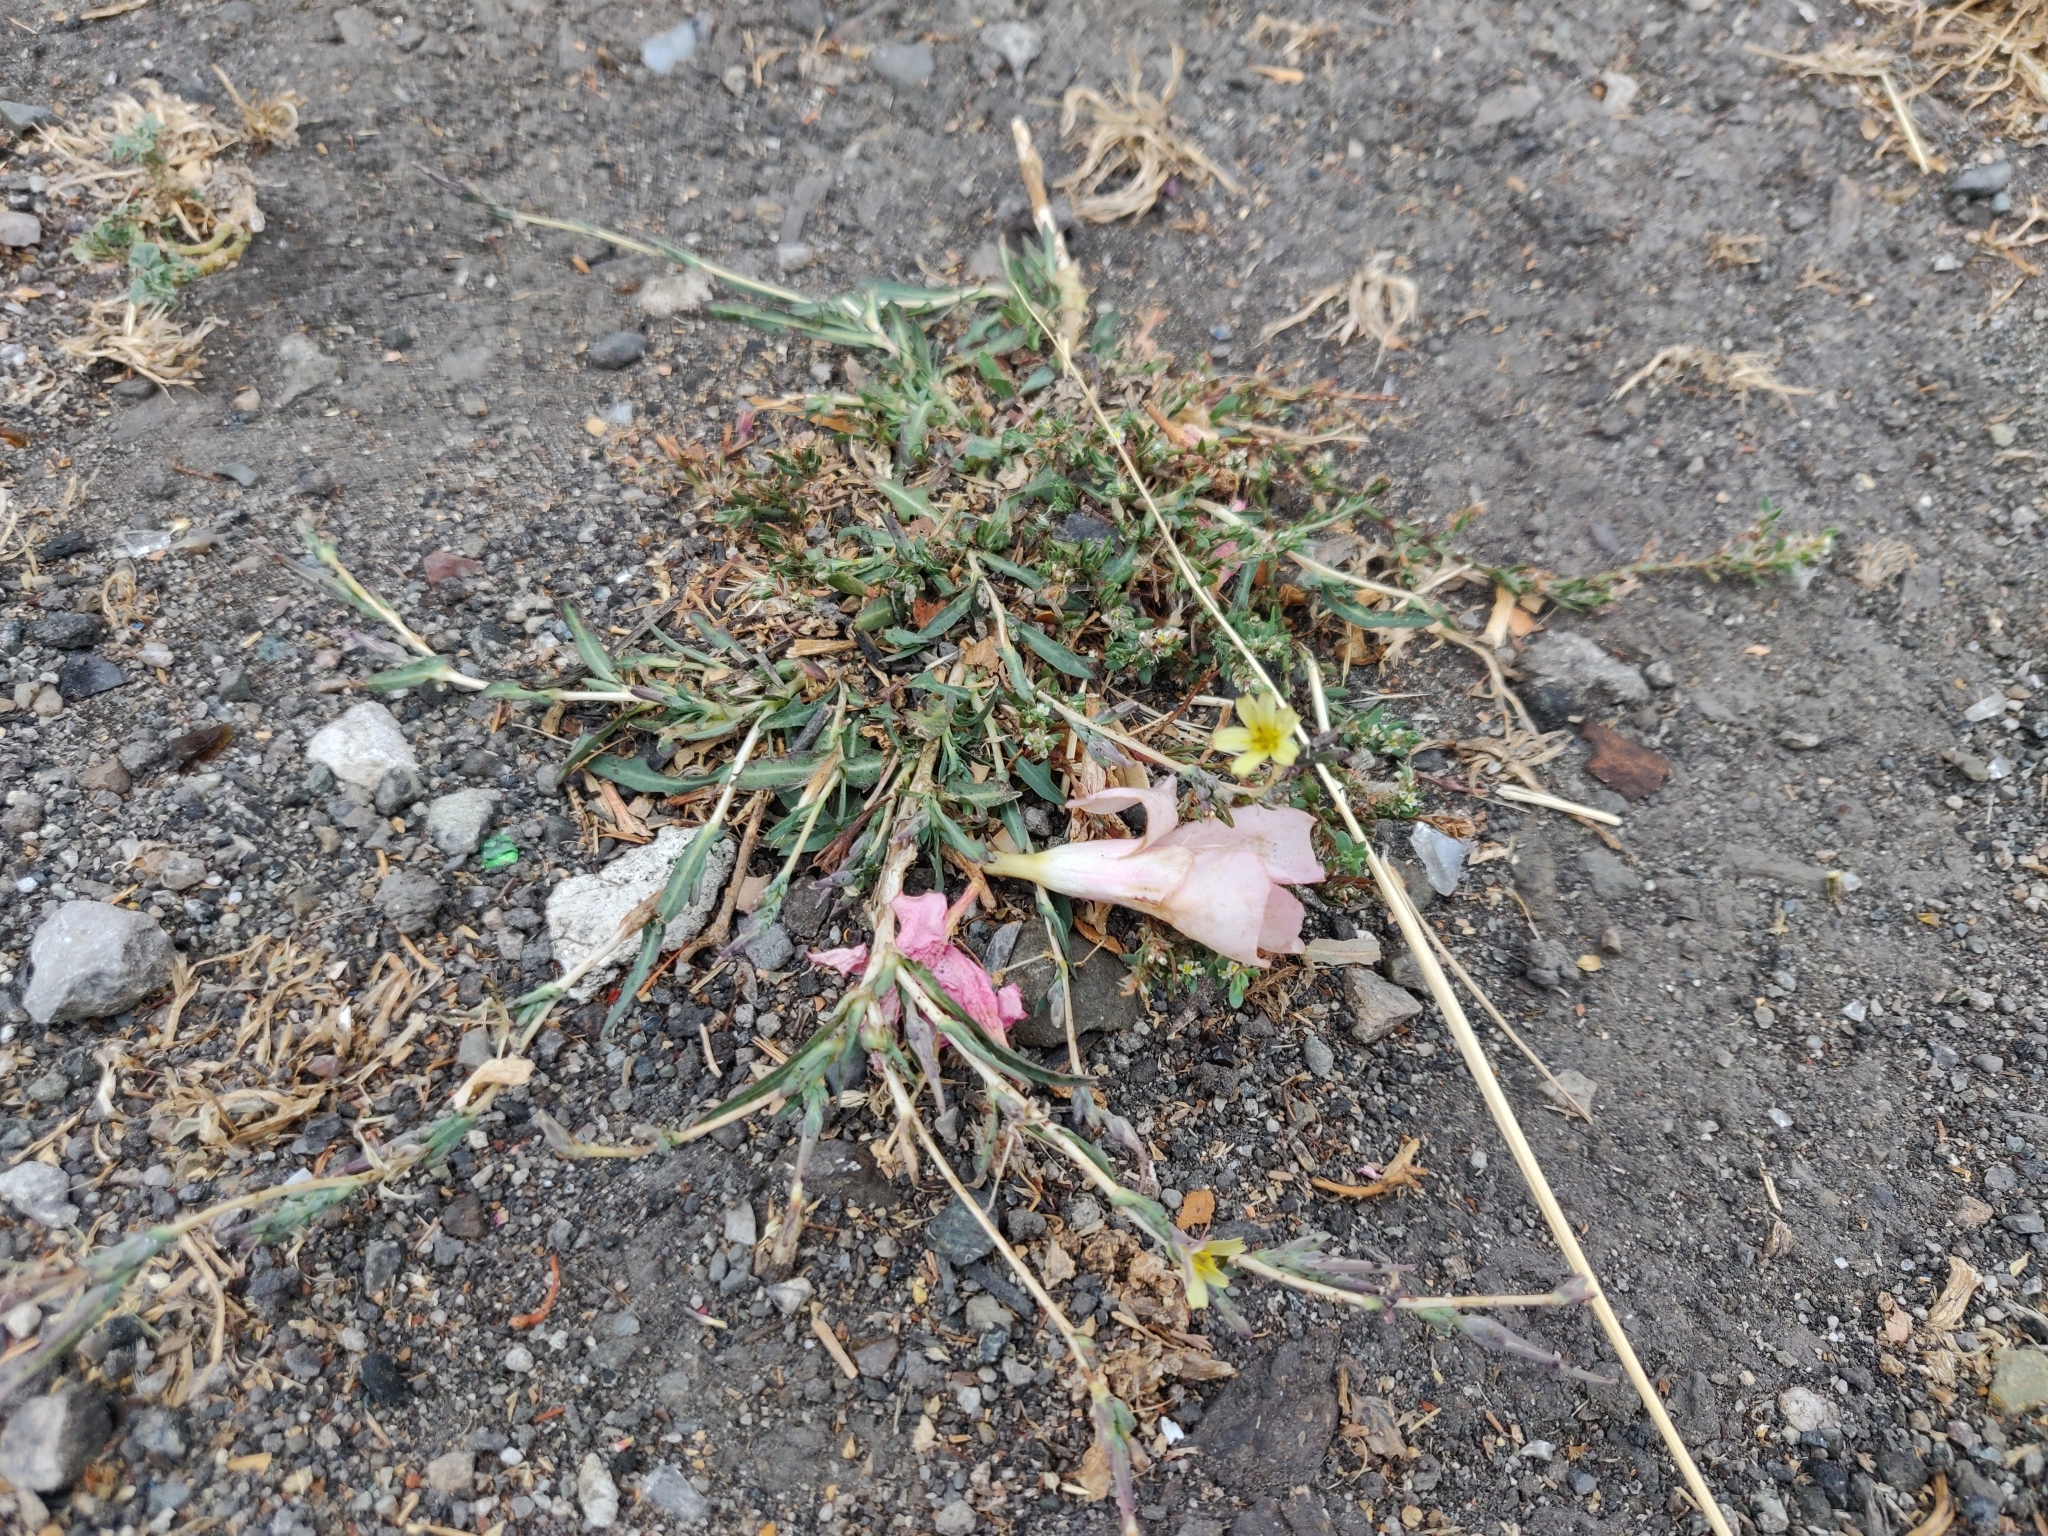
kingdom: Plantae
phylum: Tracheophyta
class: Magnoliopsida
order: Asterales
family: Asteraceae
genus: Lactuca
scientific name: Lactuca saligna
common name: Wild lettuce
